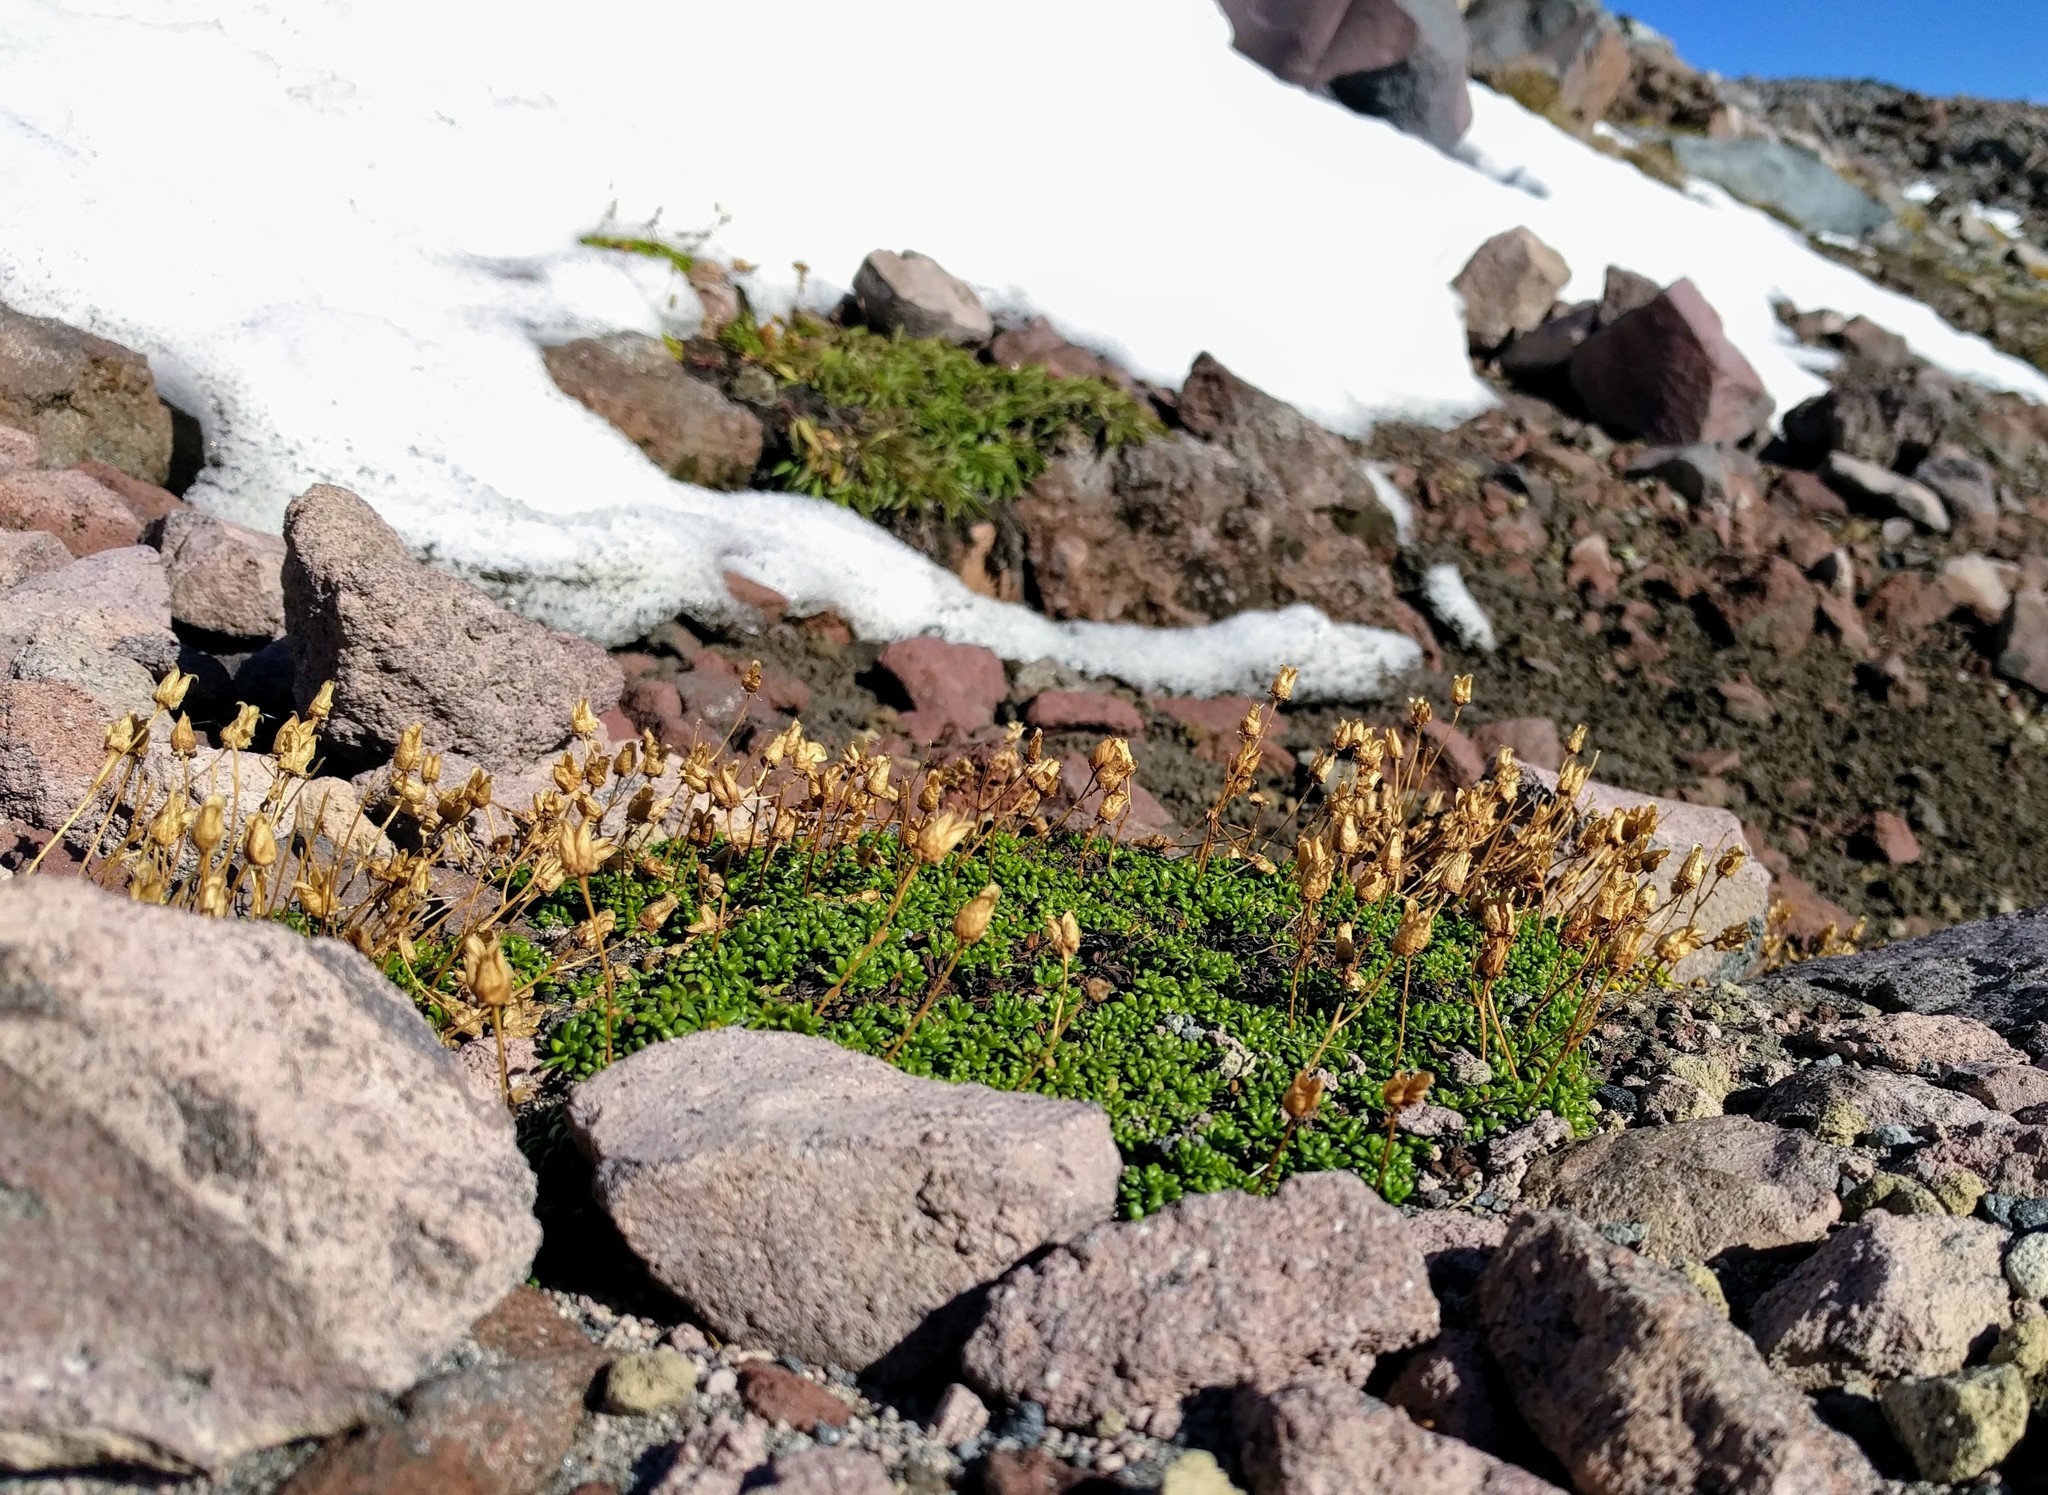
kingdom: Plantae
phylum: Tracheophyta
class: Magnoliopsida
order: Saxifragales
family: Saxifragaceae
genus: Micranthes
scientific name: Micranthes tolmiei
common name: Tolmie's saxifrage
